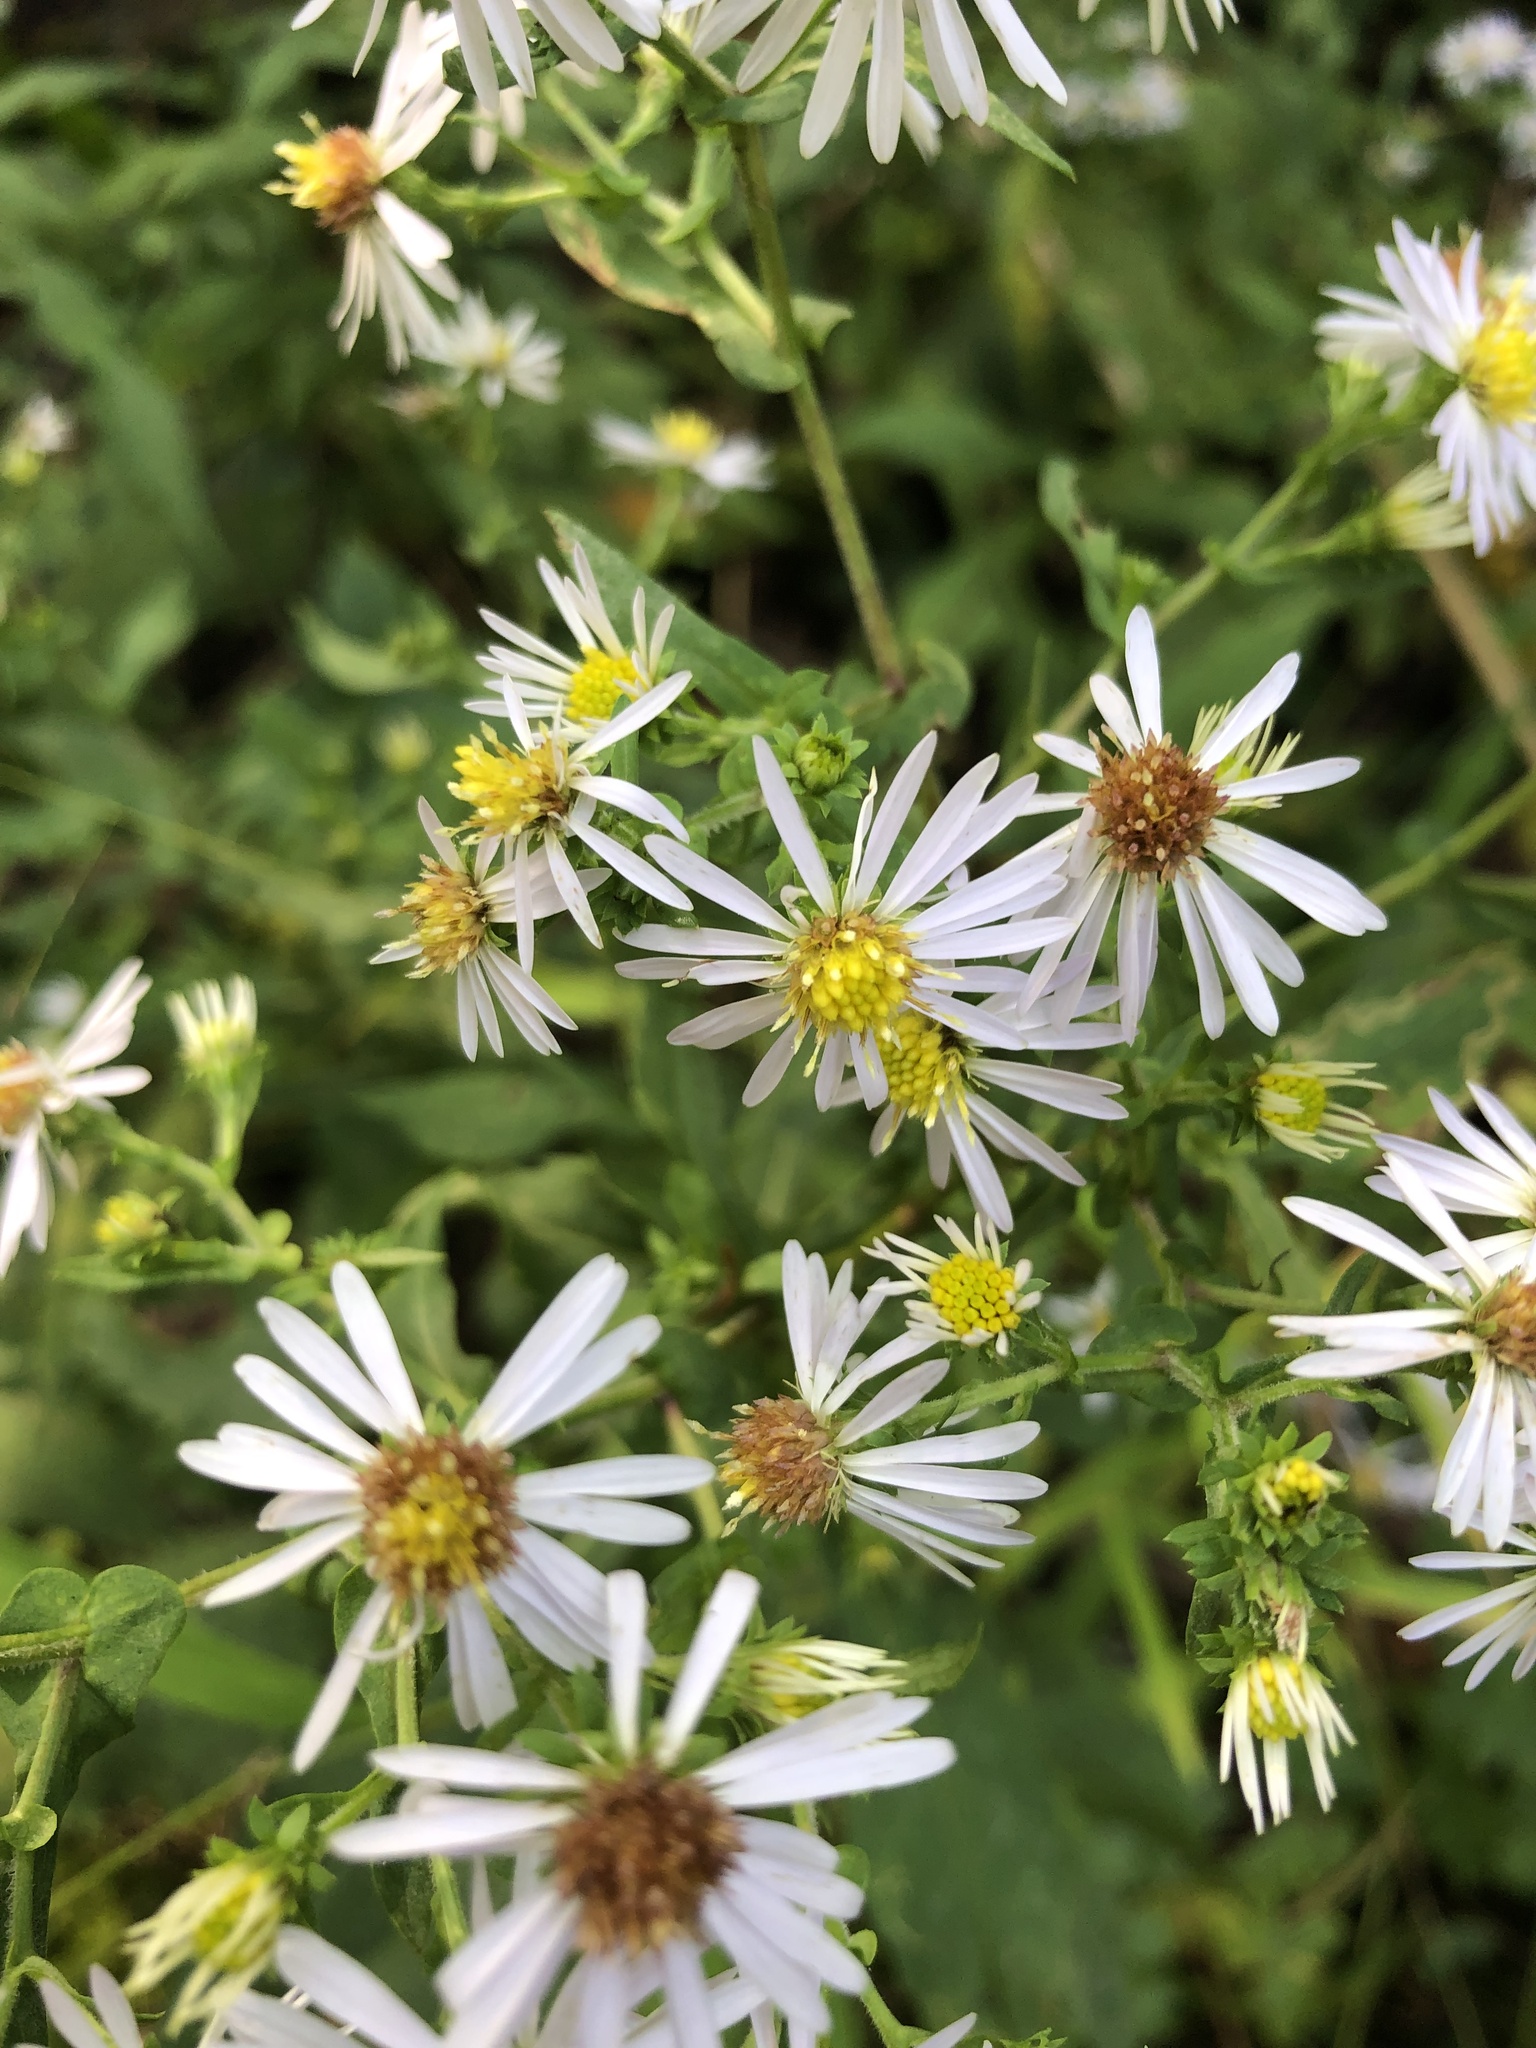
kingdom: Plantae
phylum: Tracheophyta
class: Magnoliopsida
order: Asterales
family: Asteraceae
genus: Symphyotrichum
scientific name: Symphyotrichum prenanthoides
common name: Crooked-stem aster
